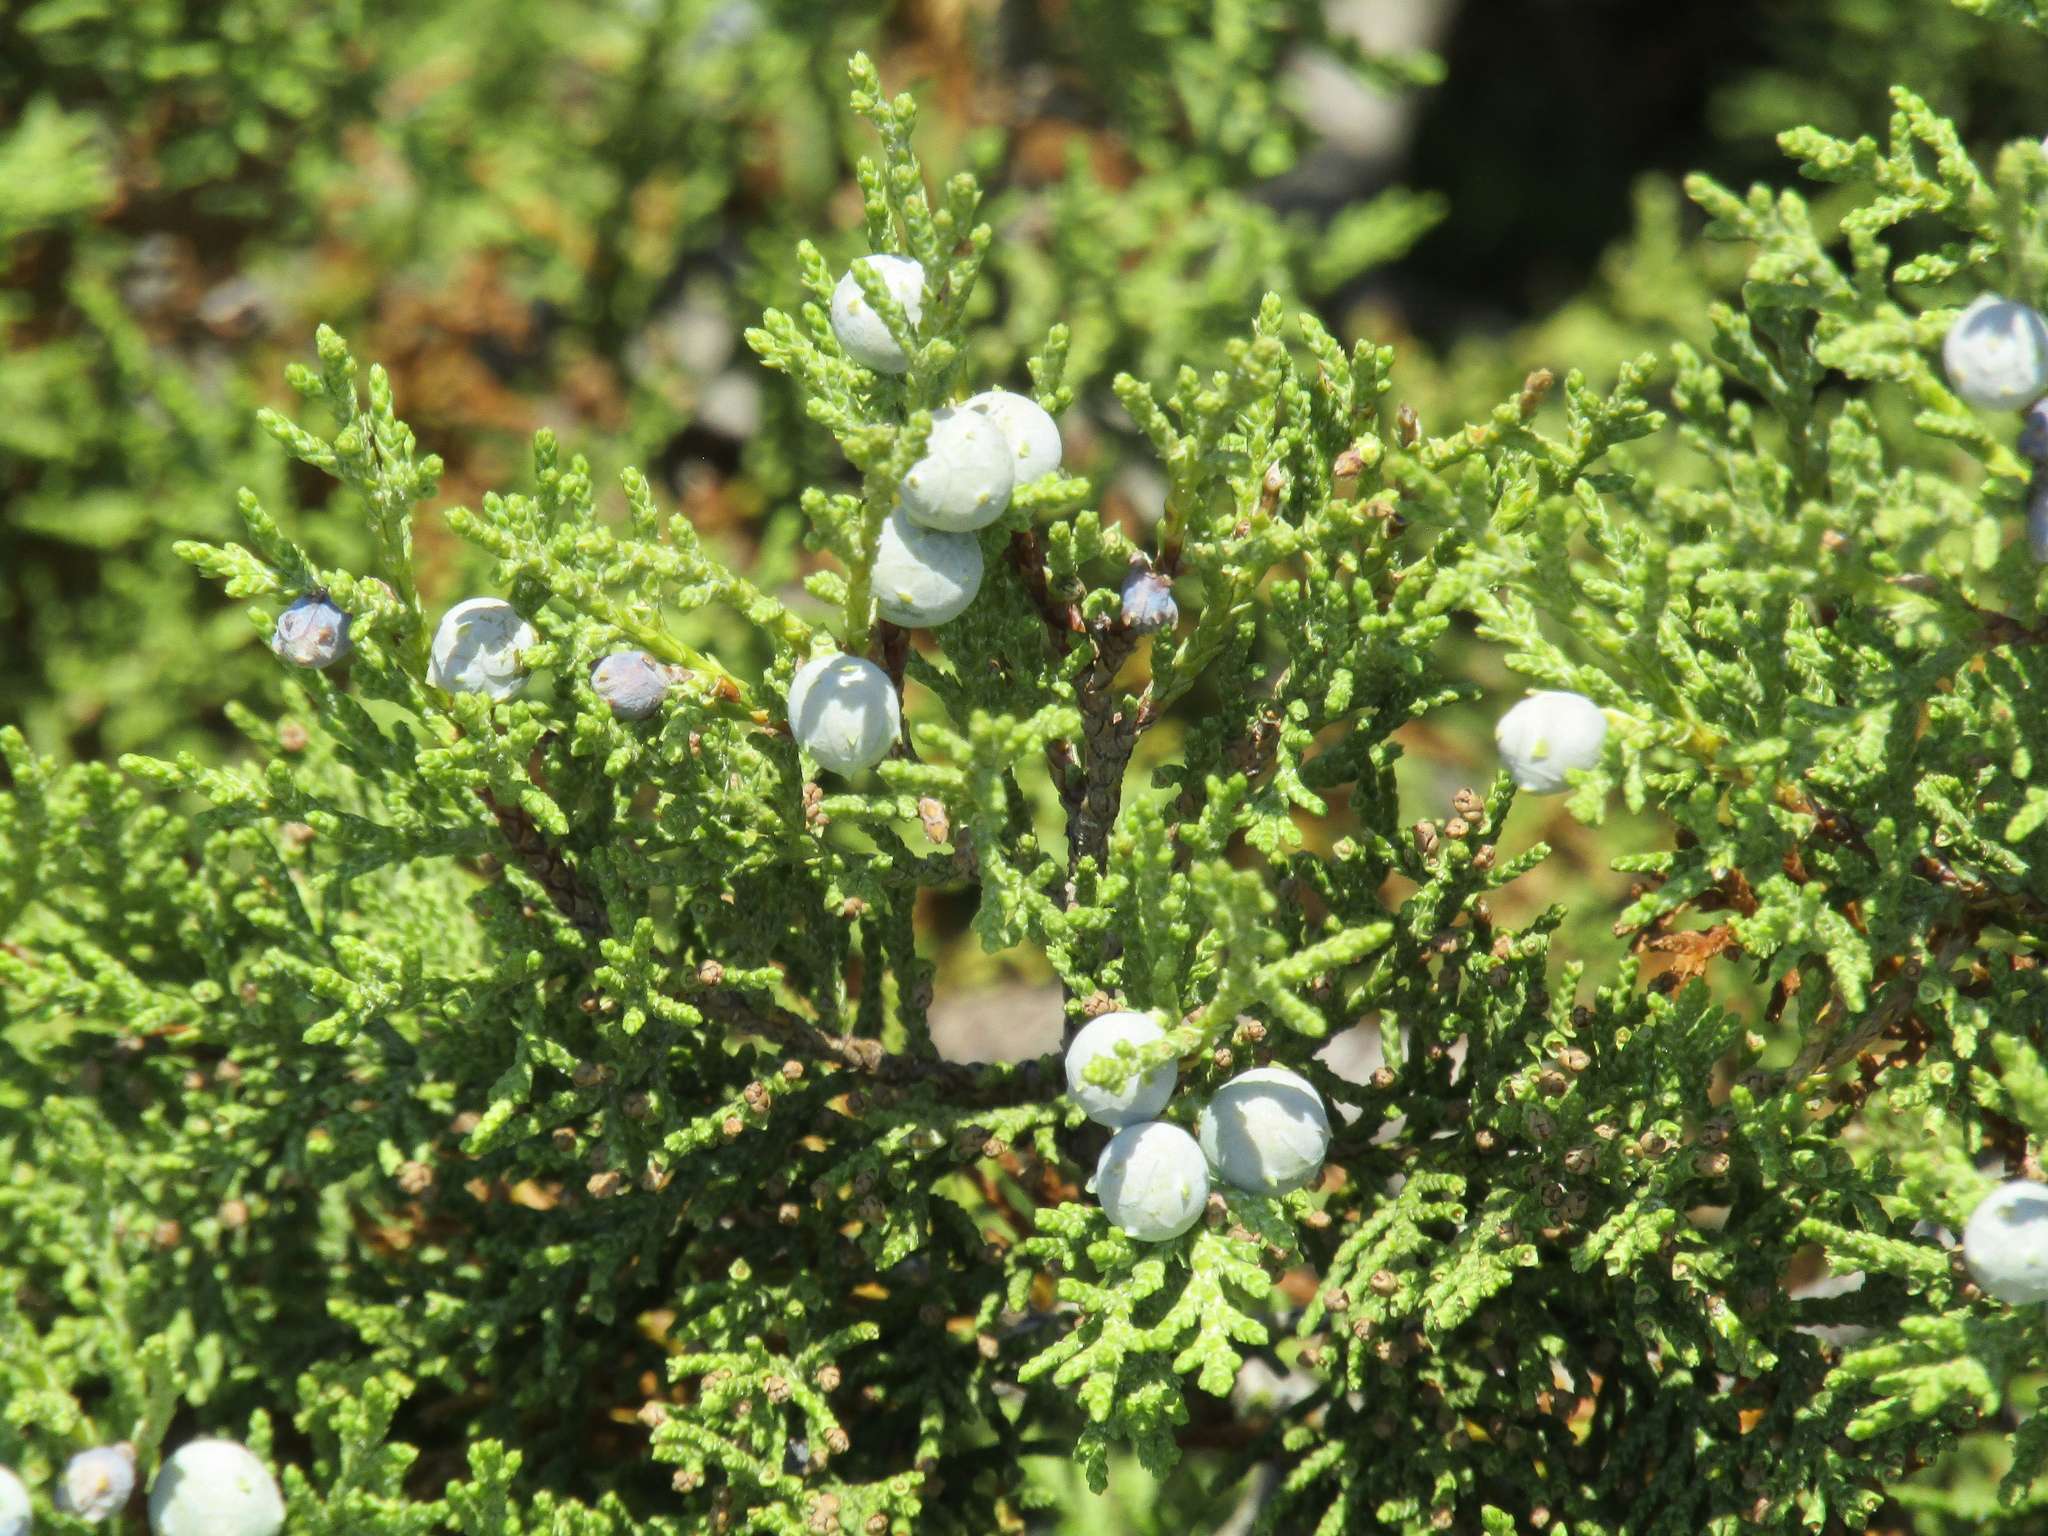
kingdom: Plantae
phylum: Tracheophyta
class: Pinopsida
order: Pinales
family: Cupressaceae
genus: Juniperus
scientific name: Juniperus excelsa
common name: Crimean juniper
